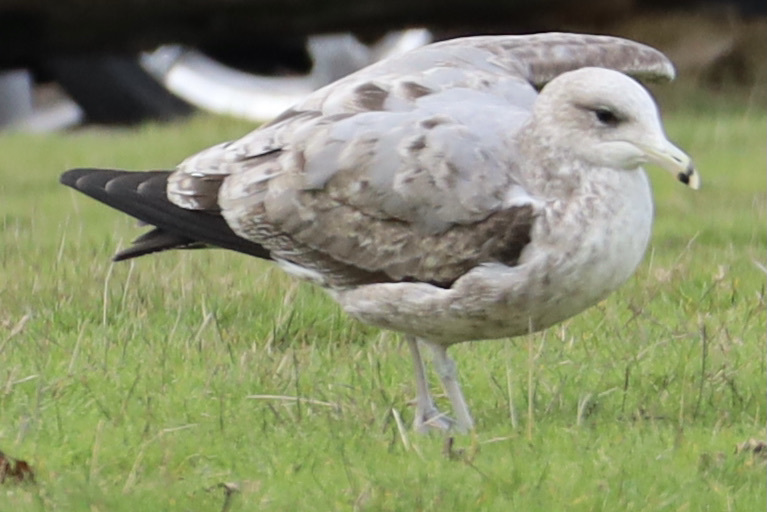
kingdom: Animalia
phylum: Chordata
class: Aves
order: Charadriiformes
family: Laridae
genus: Larus
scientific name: Larus californicus
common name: California gull
